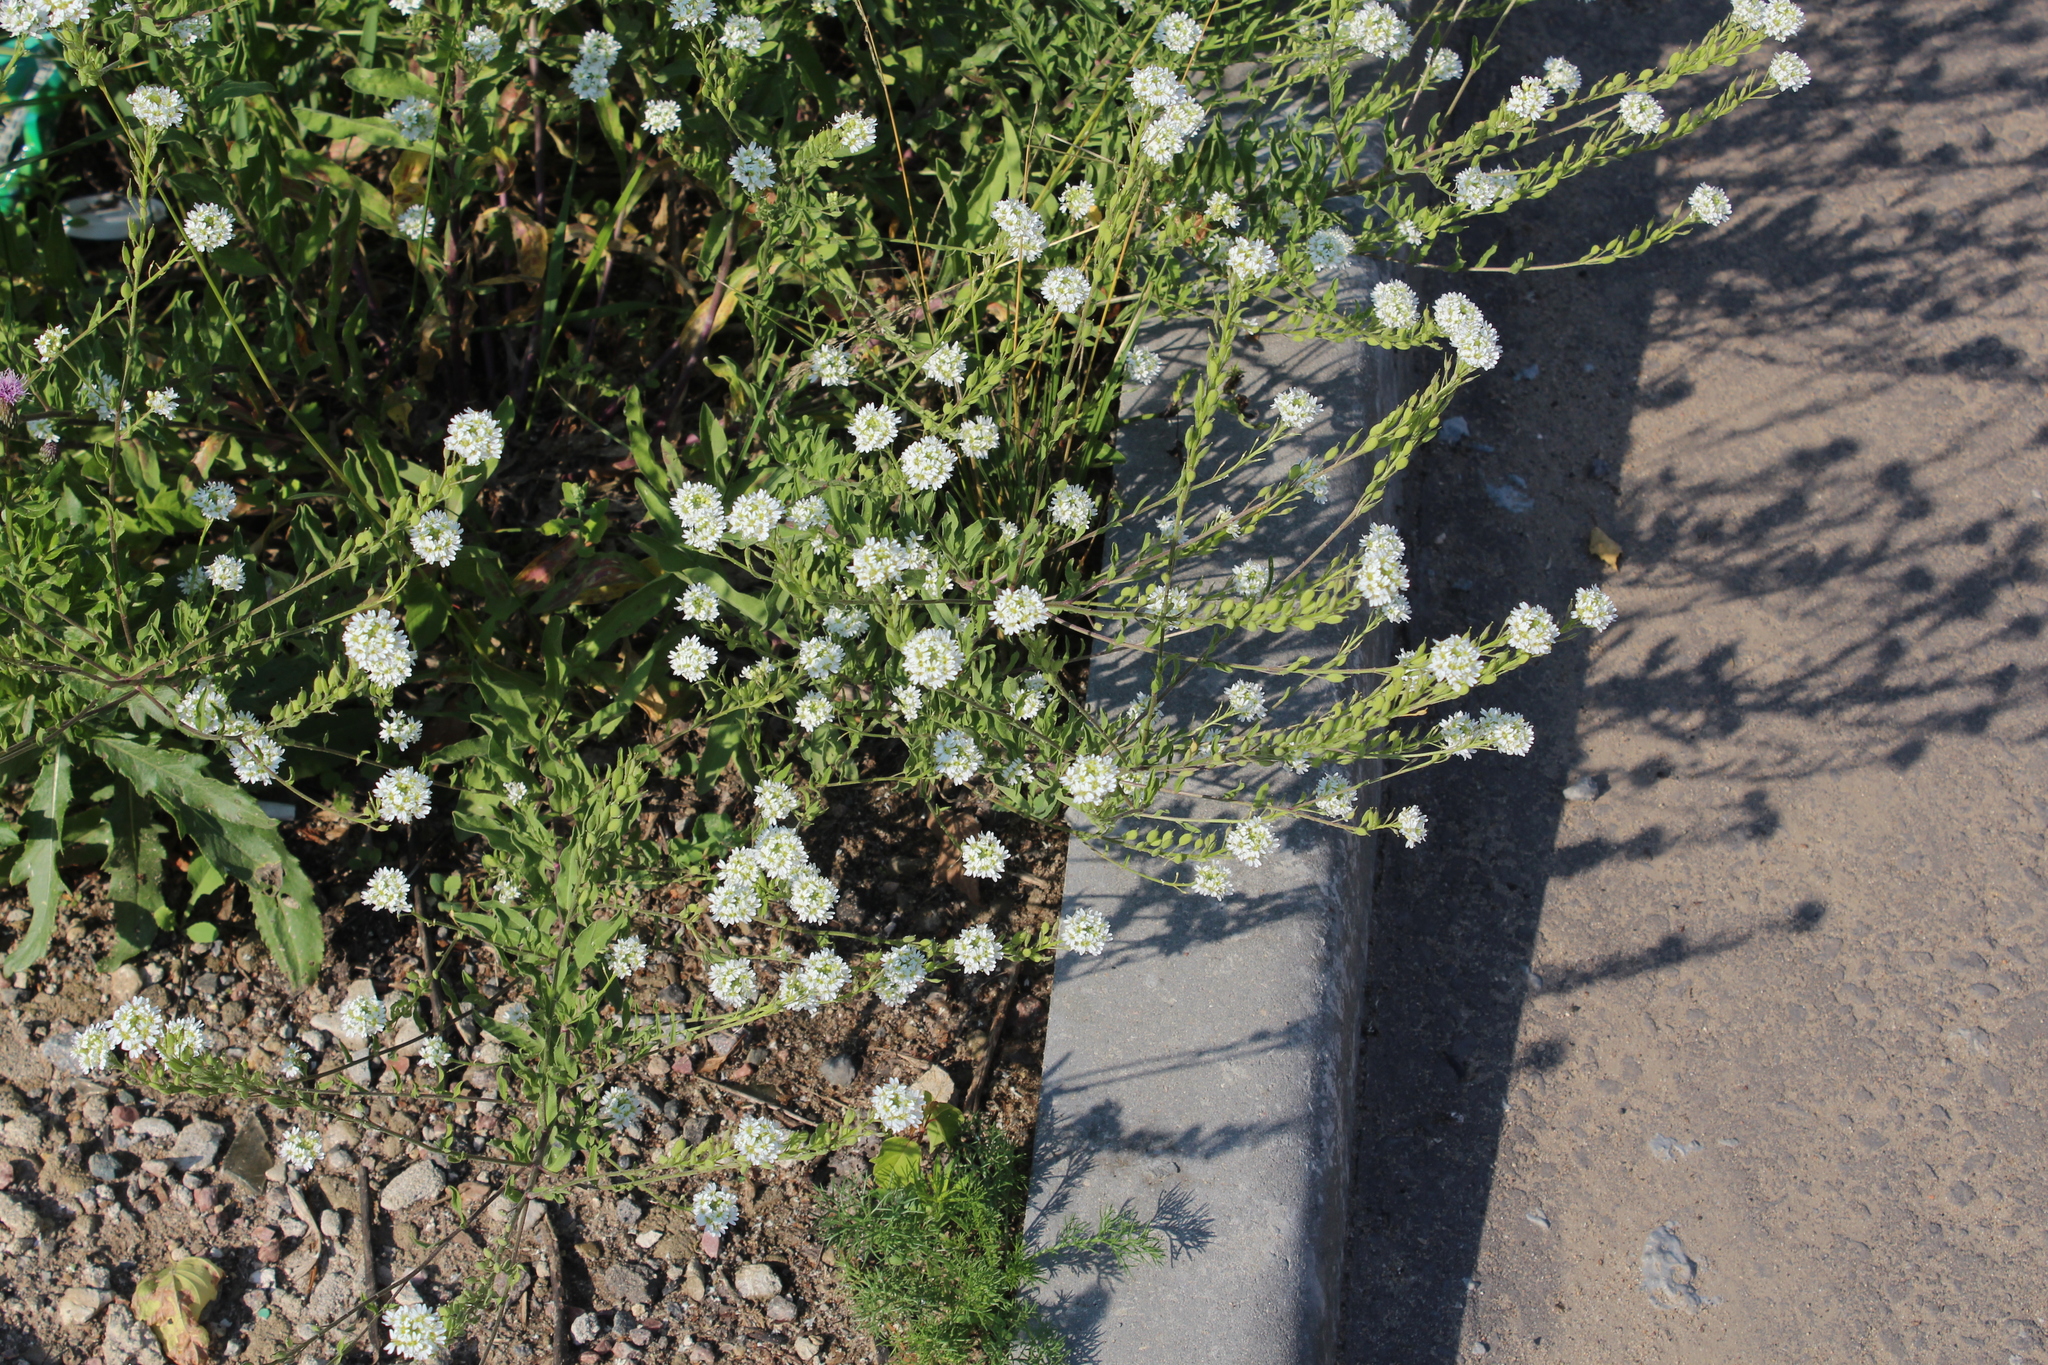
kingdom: Plantae
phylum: Tracheophyta
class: Magnoliopsida
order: Brassicales
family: Brassicaceae
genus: Berteroa
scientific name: Berteroa incana
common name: Hoary alison
